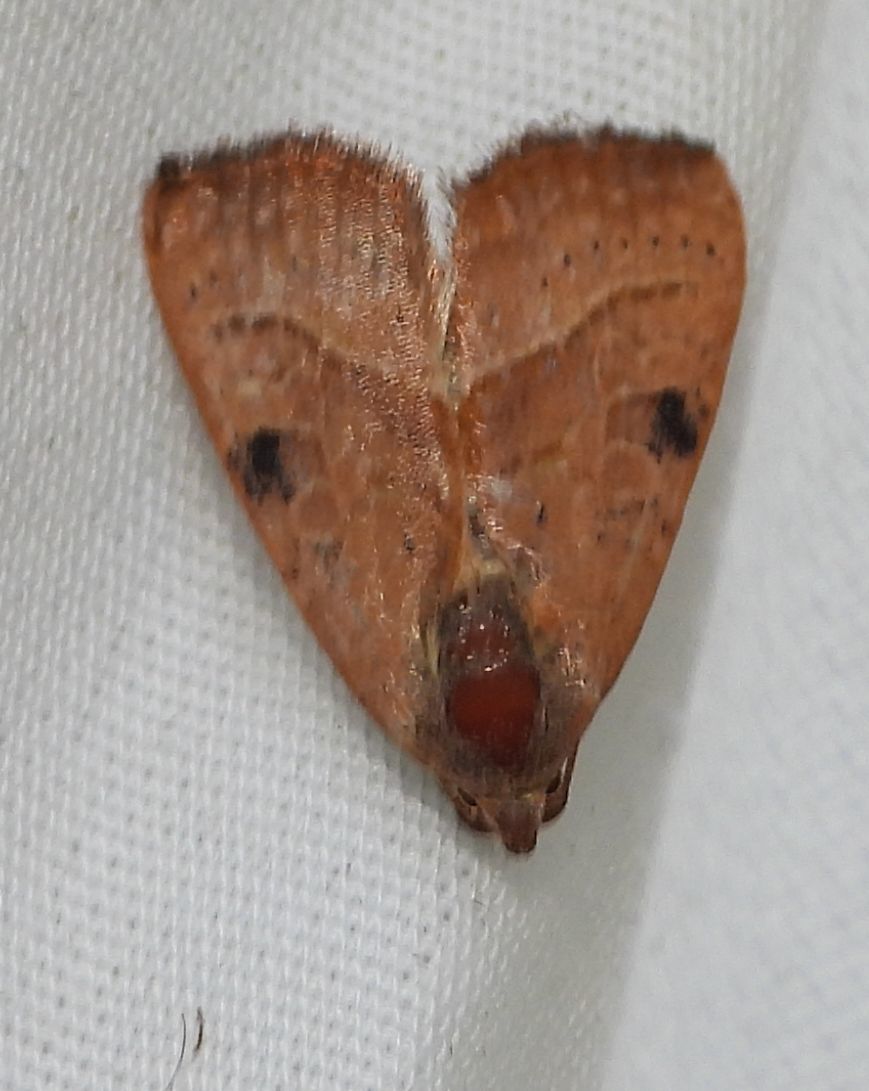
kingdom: Animalia
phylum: Arthropoda
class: Insecta
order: Lepidoptera
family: Noctuidae
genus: Galgula
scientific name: Galgula partita
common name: Wedgeling
